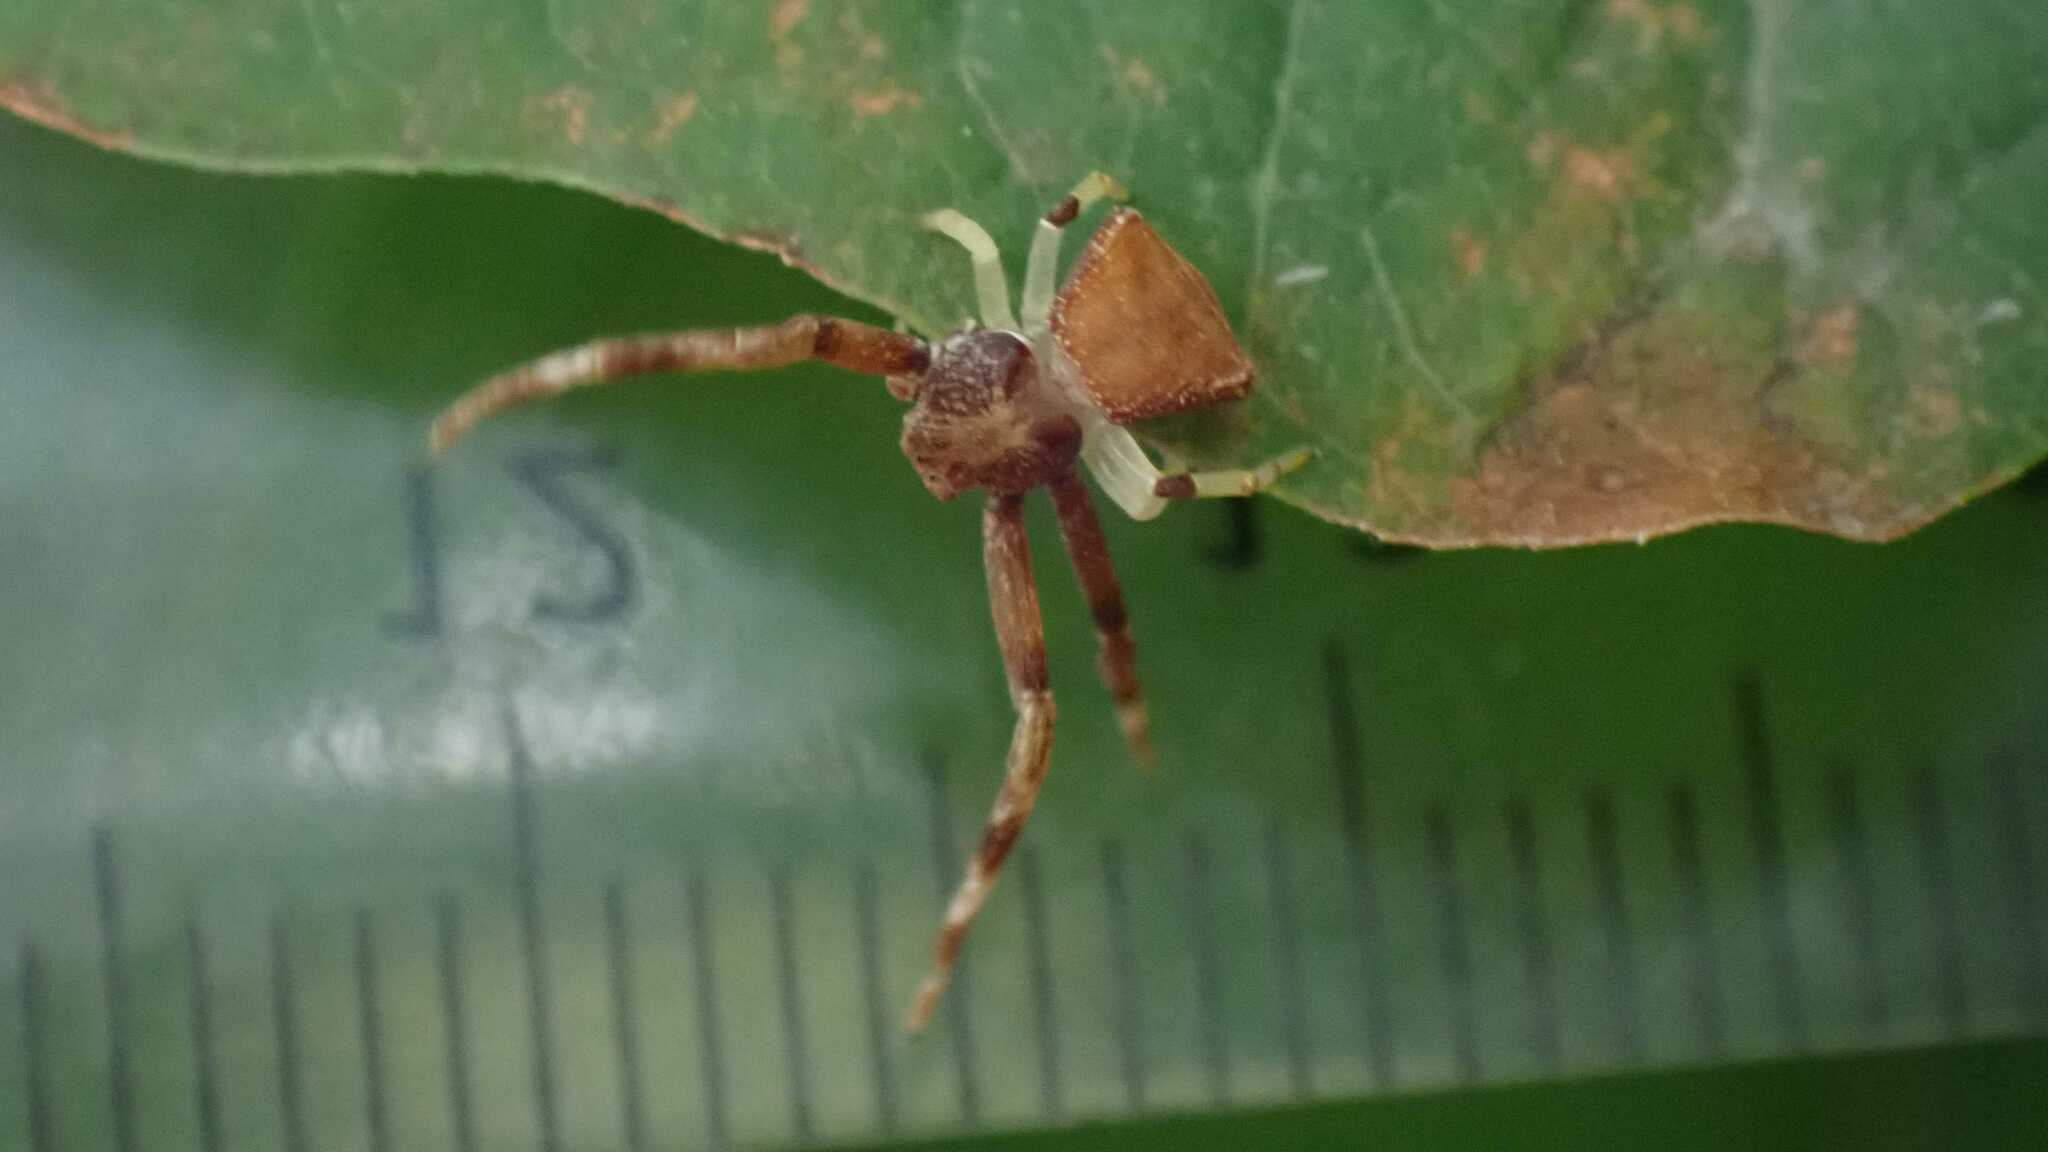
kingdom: Animalia
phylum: Arthropoda
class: Arachnida
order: Araneae
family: Thomisidae
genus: Pistius
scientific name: Pistius truncatus
